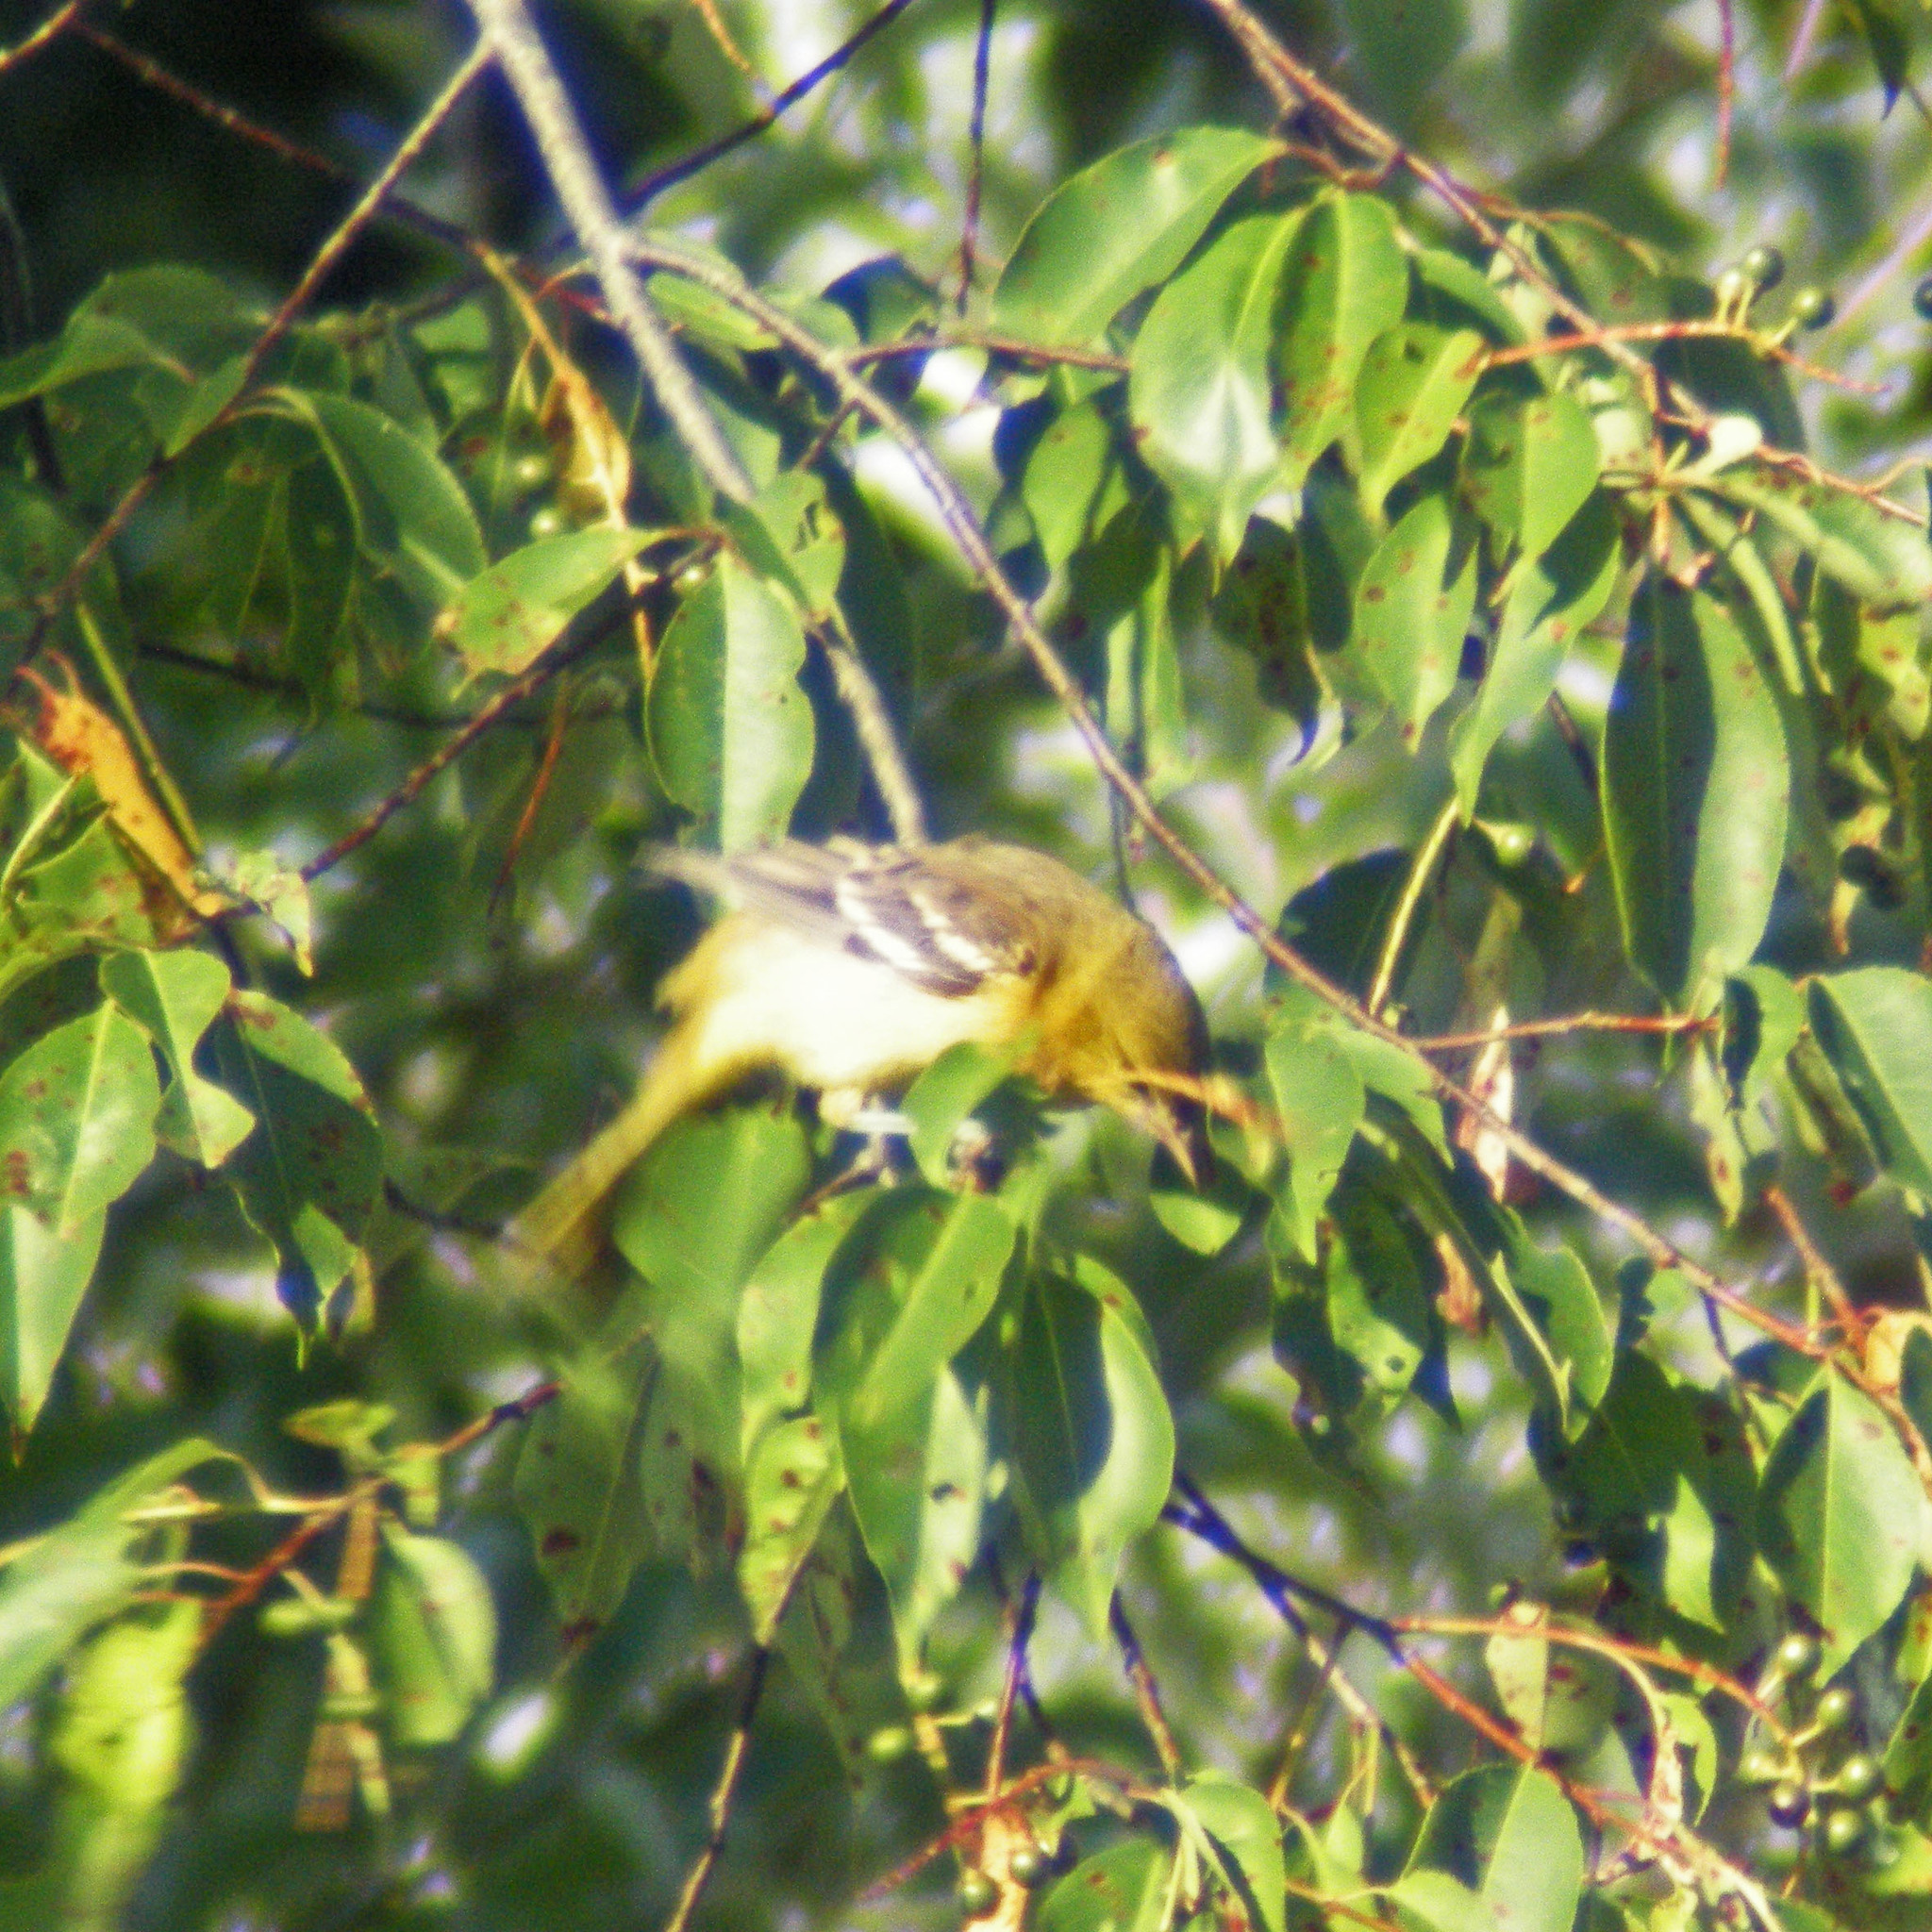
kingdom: Animalia
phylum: Chordata
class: Aves
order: Passeriformes
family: Icteridae
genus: Icterus
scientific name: Icterus spurius
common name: Orchard oriole
